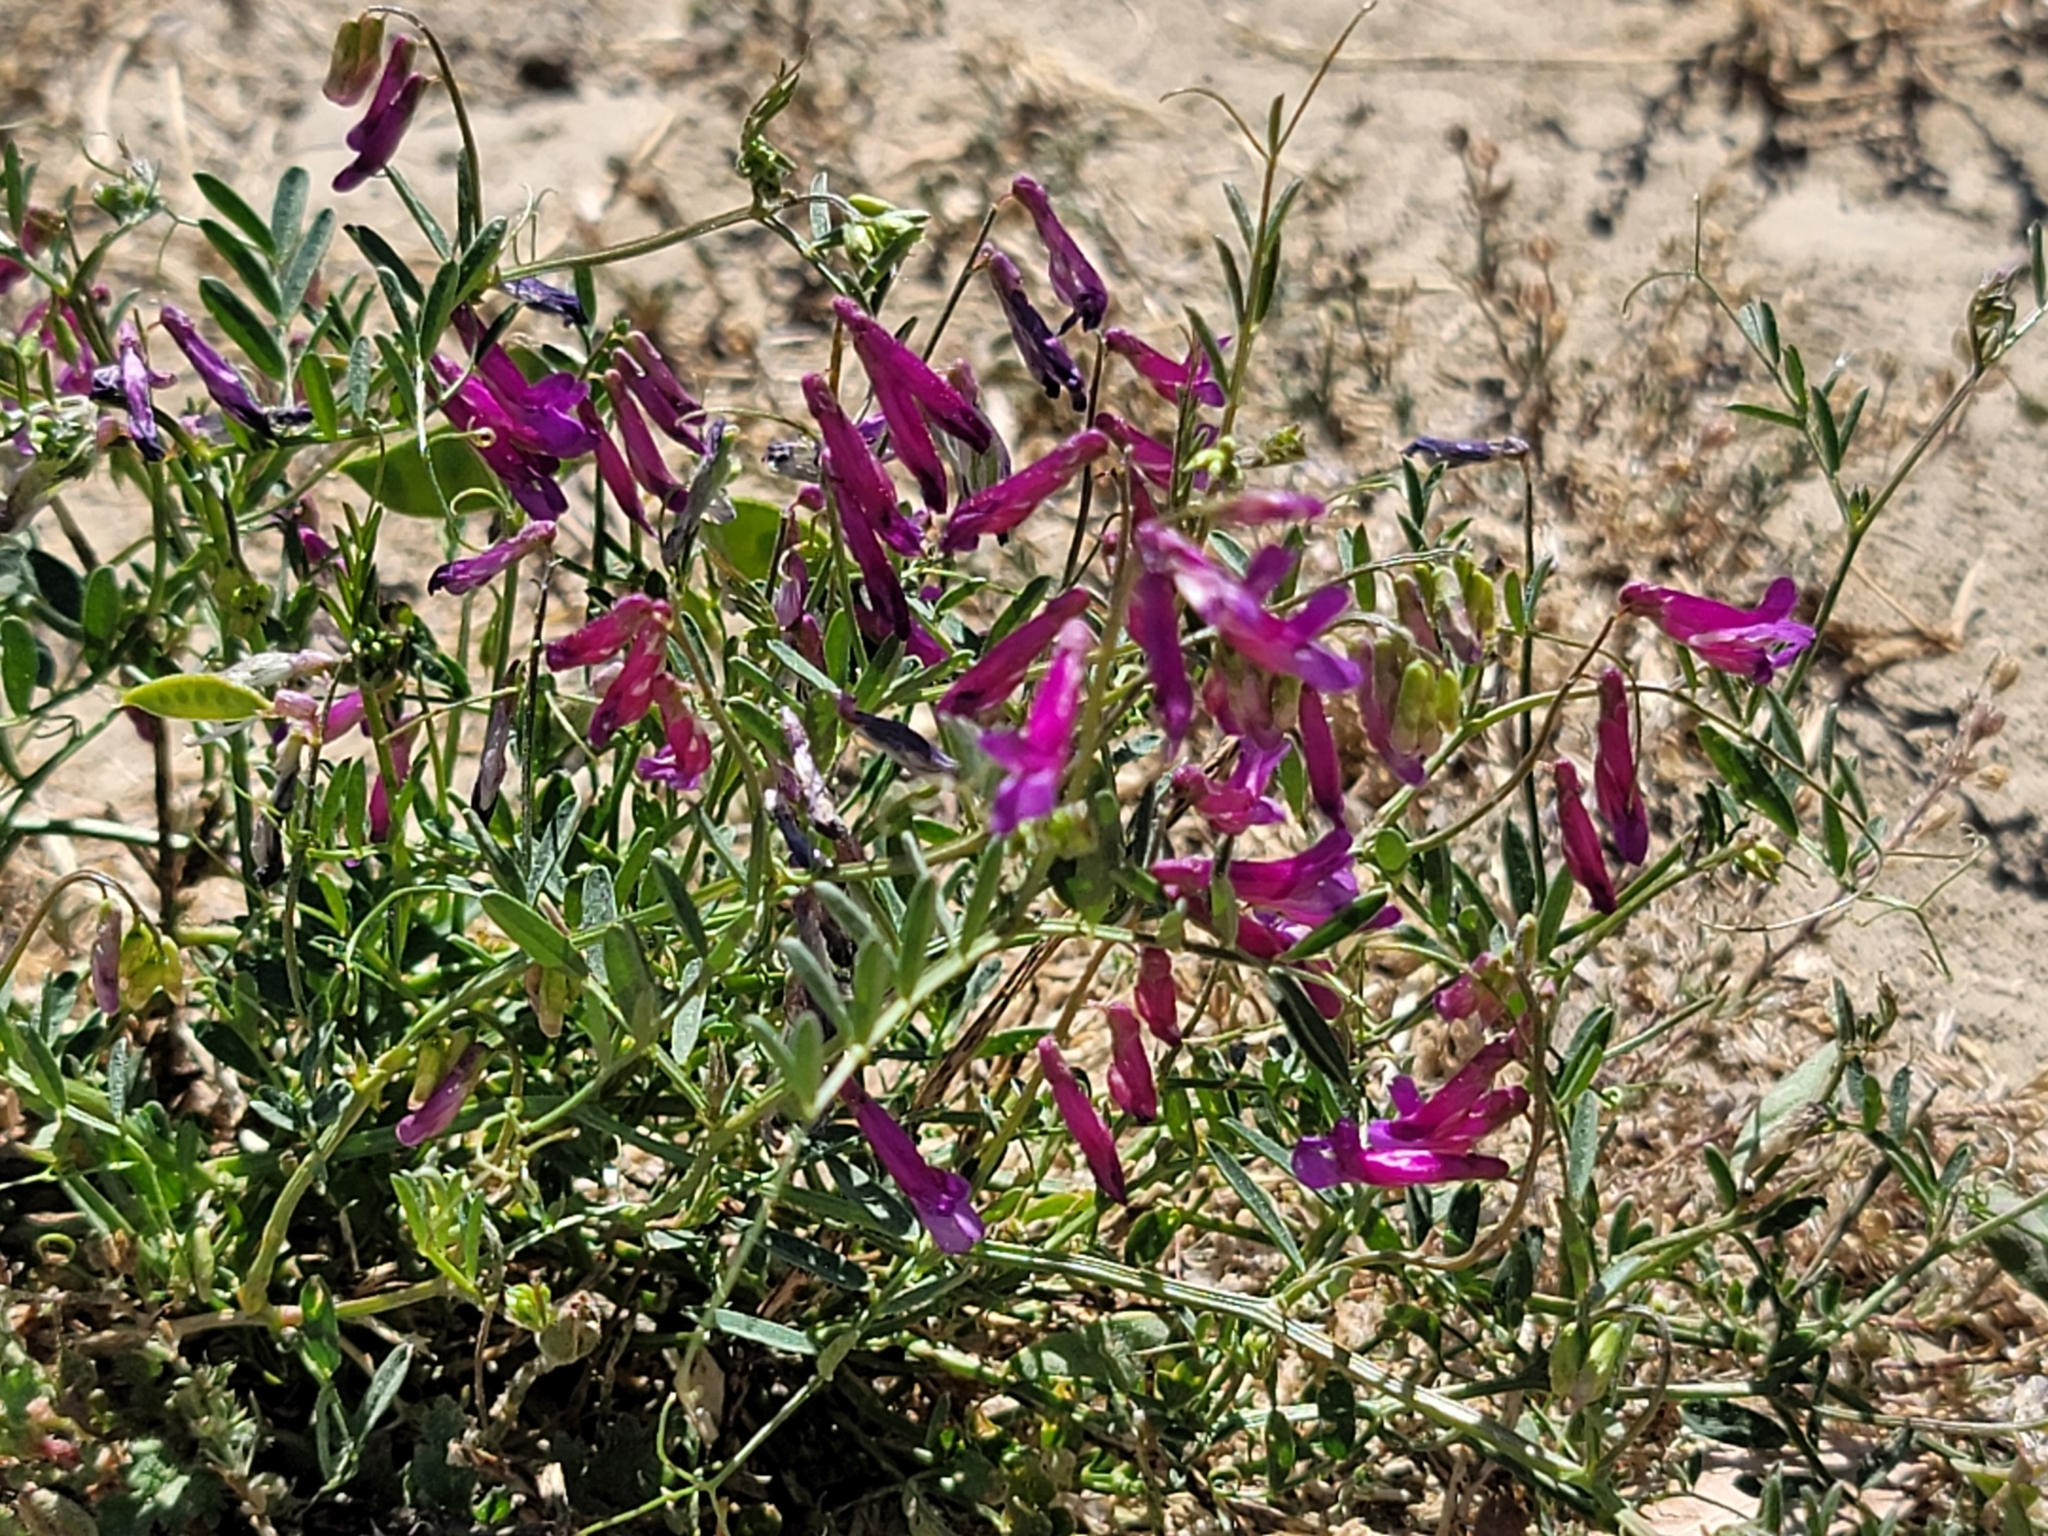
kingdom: Plantae
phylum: Tracheophyta
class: Magnoliopsida
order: Fabales
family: Fabaceae
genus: Vicia
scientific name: Vicia villosa
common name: Fodder vetch
